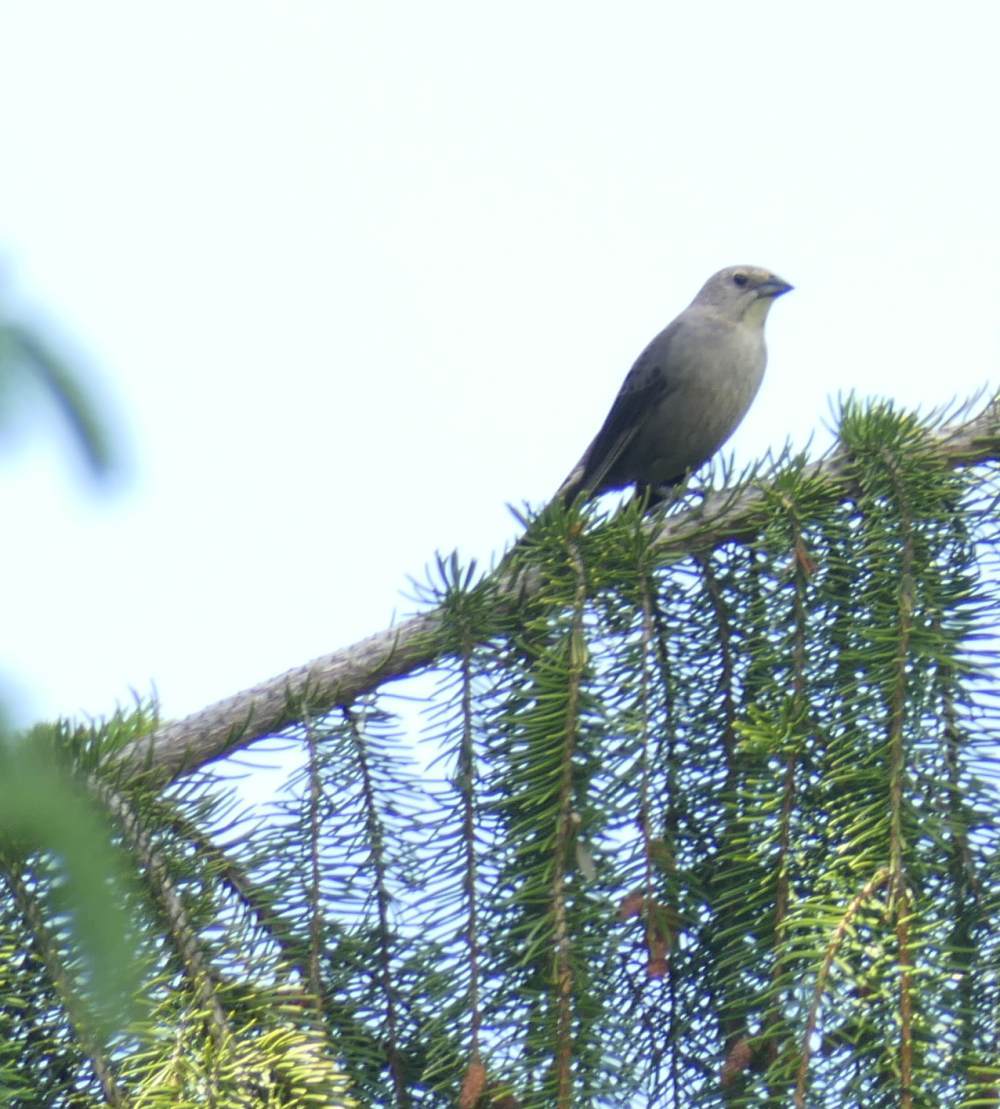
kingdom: Animalia
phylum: Chordata
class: Aves
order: Passeriformes
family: Icteridae
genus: Molothrus
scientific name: Molothrus ater
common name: Brown-headed cowbird
